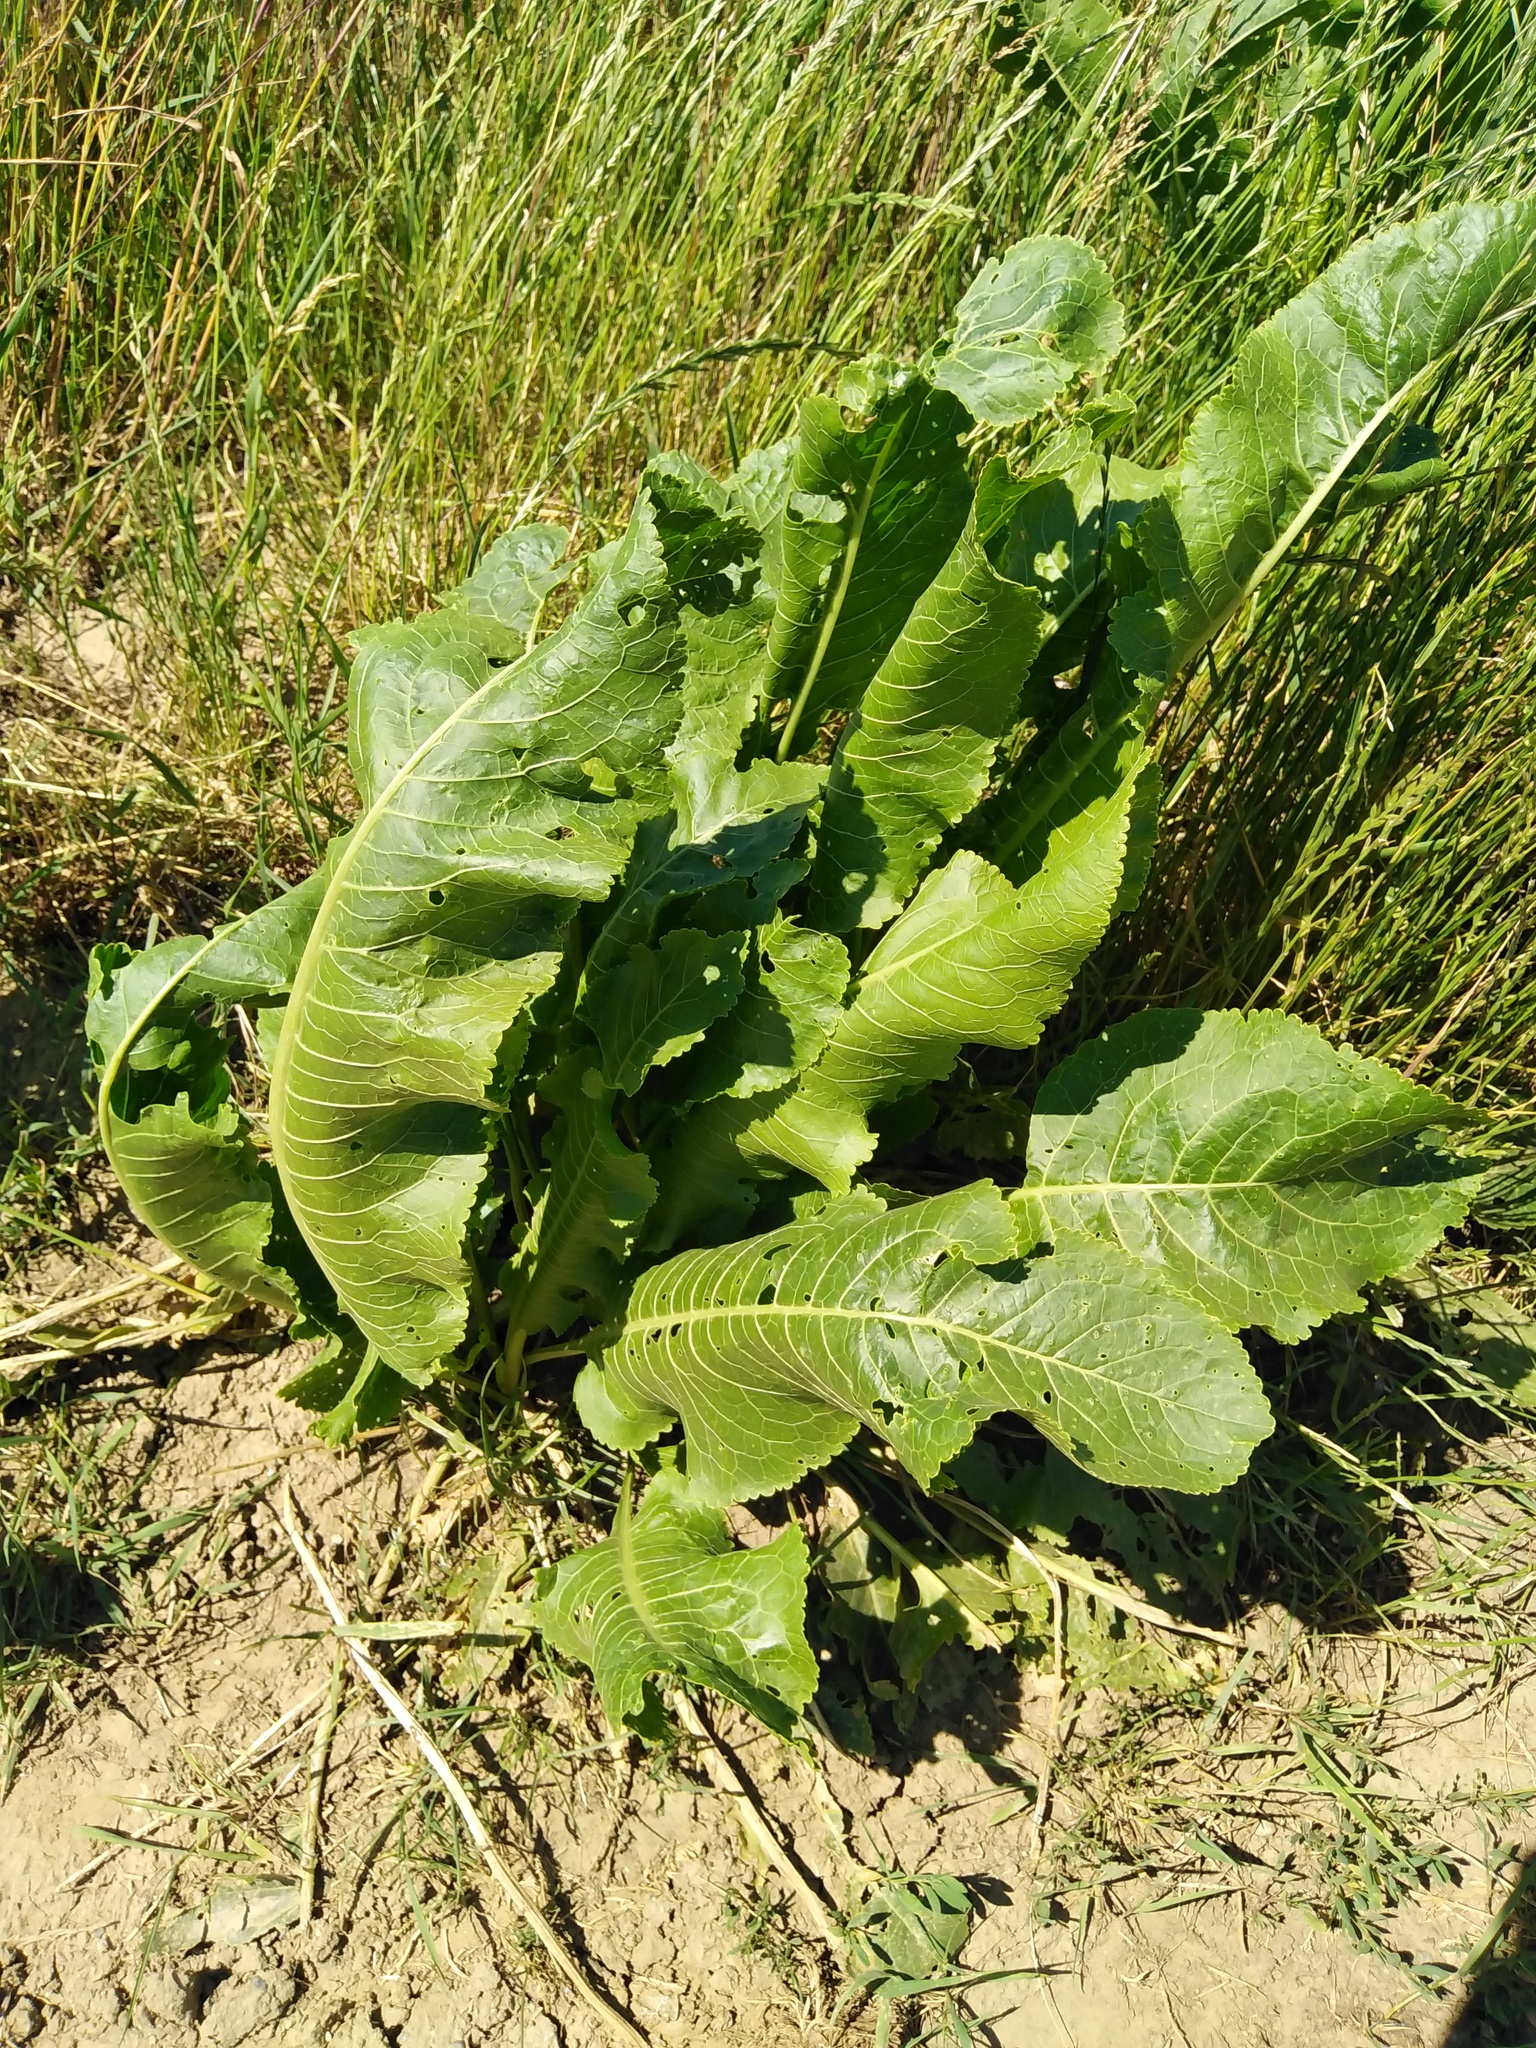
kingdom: Plantae
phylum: Tracheophyta
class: Magnoliopsida
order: Brassicales
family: Brassicaceae
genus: Armoracia
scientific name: Armoracia rusticana
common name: Horseradish
